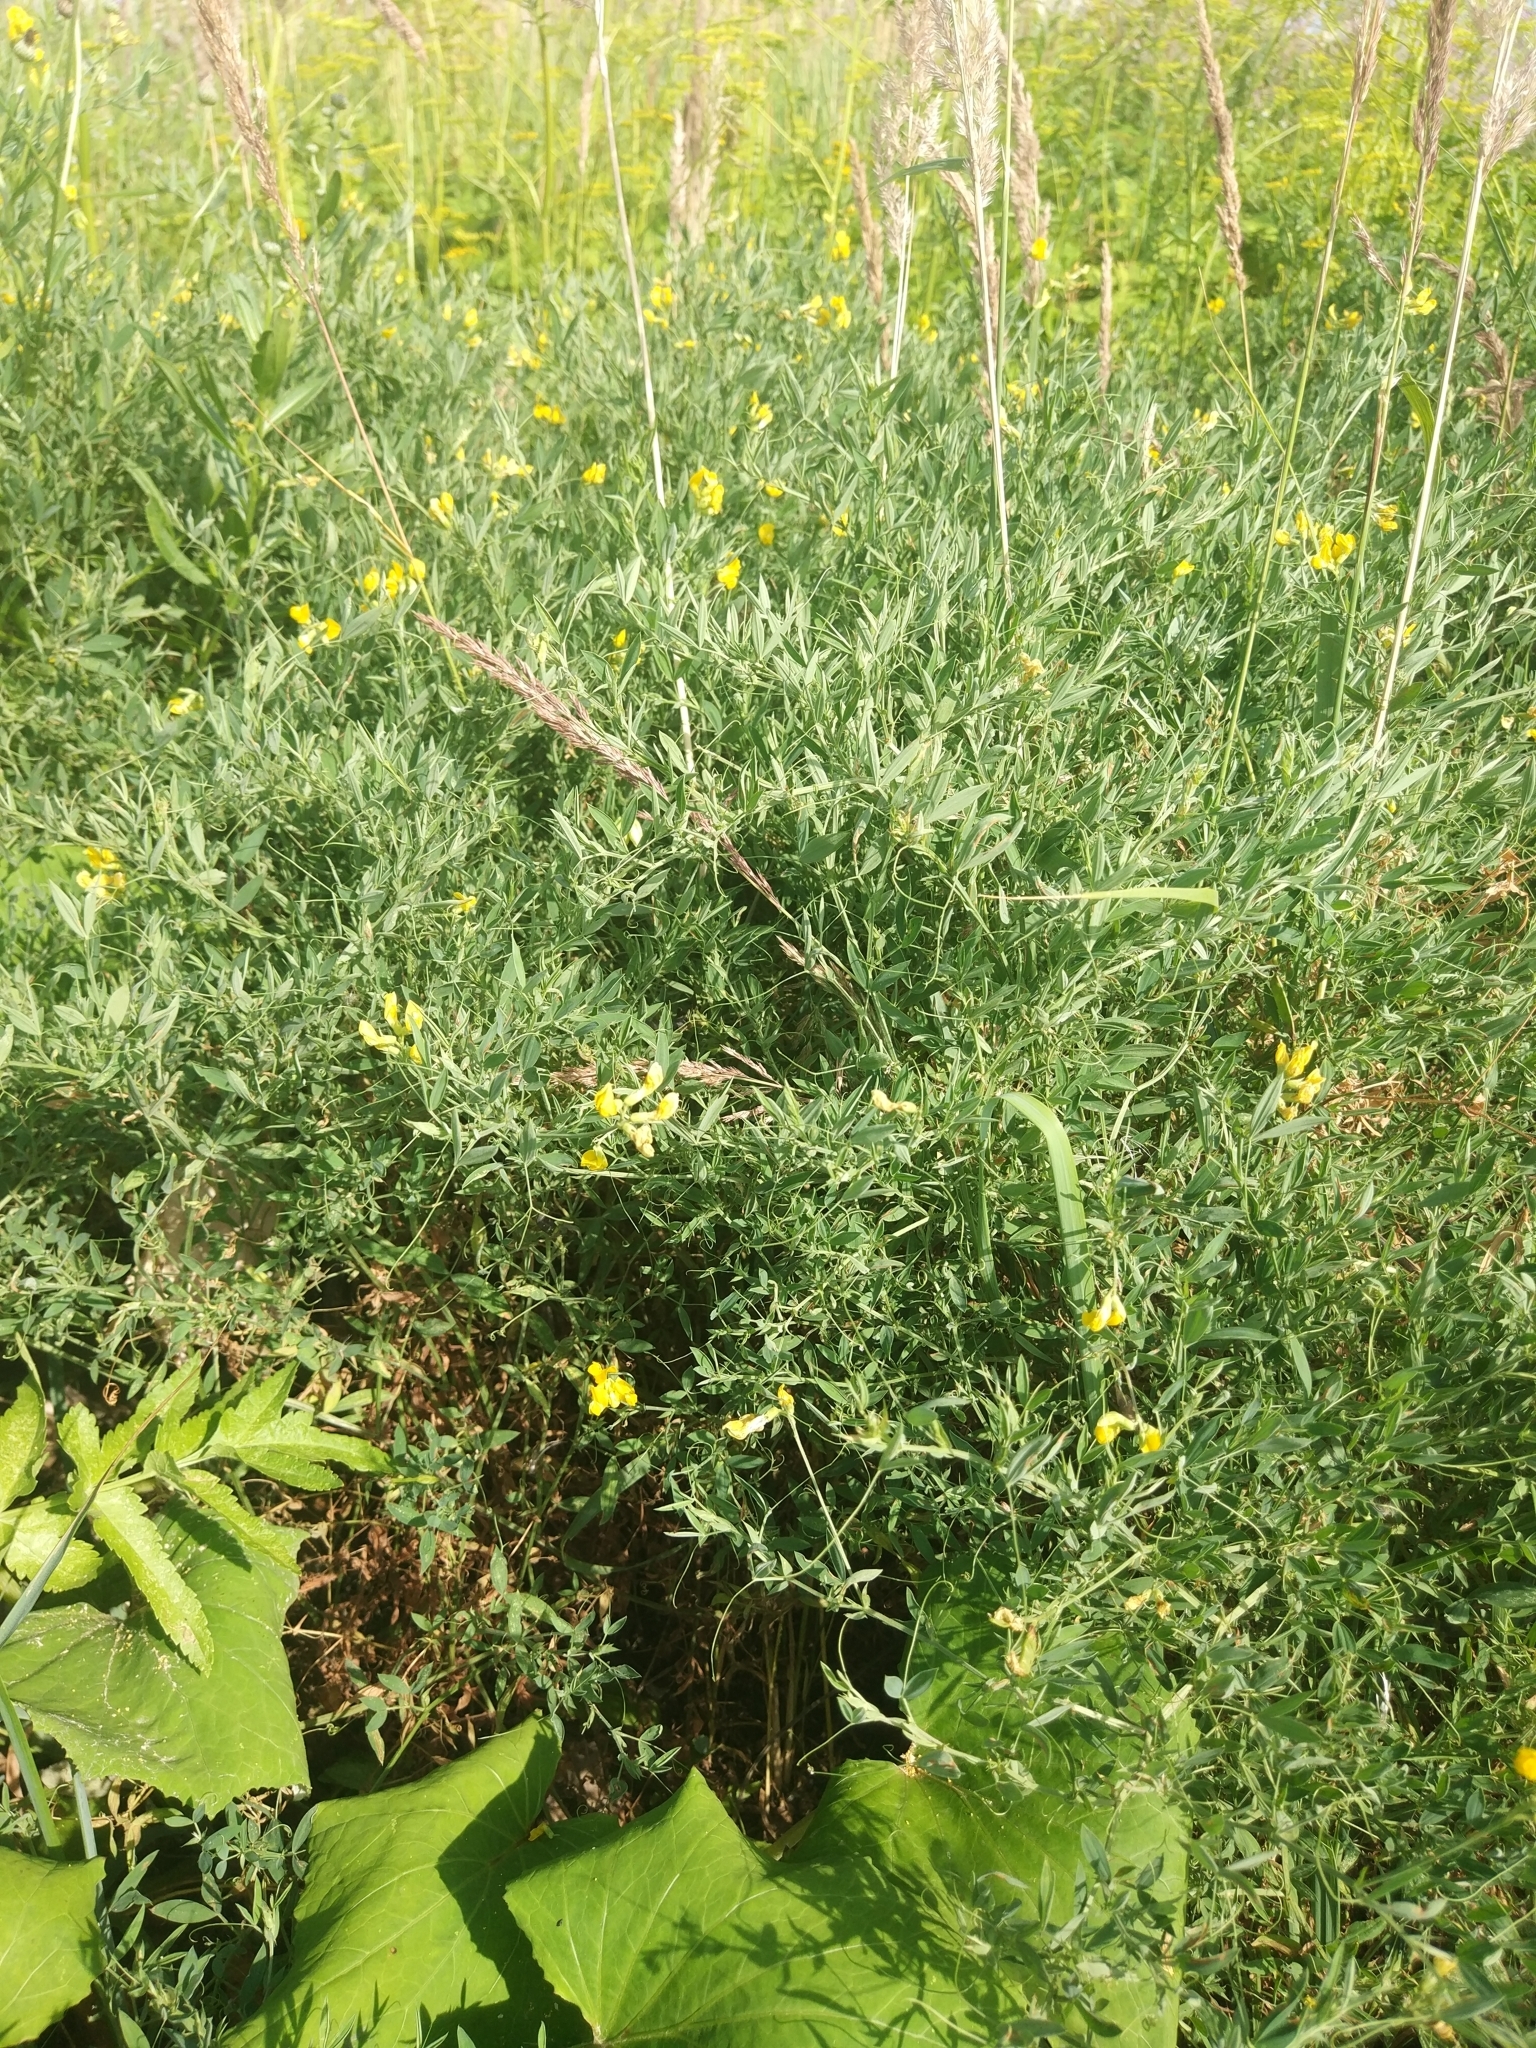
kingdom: Plantae
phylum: Tracheophyta
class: Magnoliopsida
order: Fabales
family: Fabaceae
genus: Lathyrus
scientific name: Lathyrus pratensis
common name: Meadow vetchling
